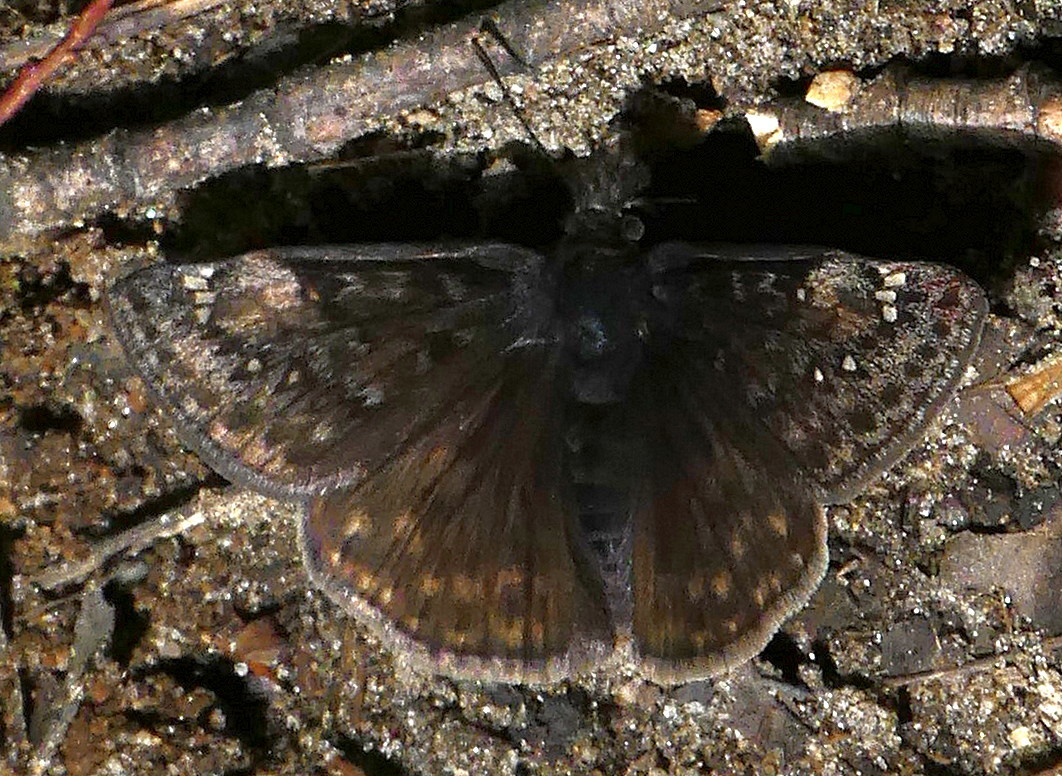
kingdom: Animalia
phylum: Arthropoda
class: Insecta
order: Lepidoptera
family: Hesperiidae
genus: Erynnis
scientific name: Erynnis juvenalis
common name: Juvenal's duskywing
